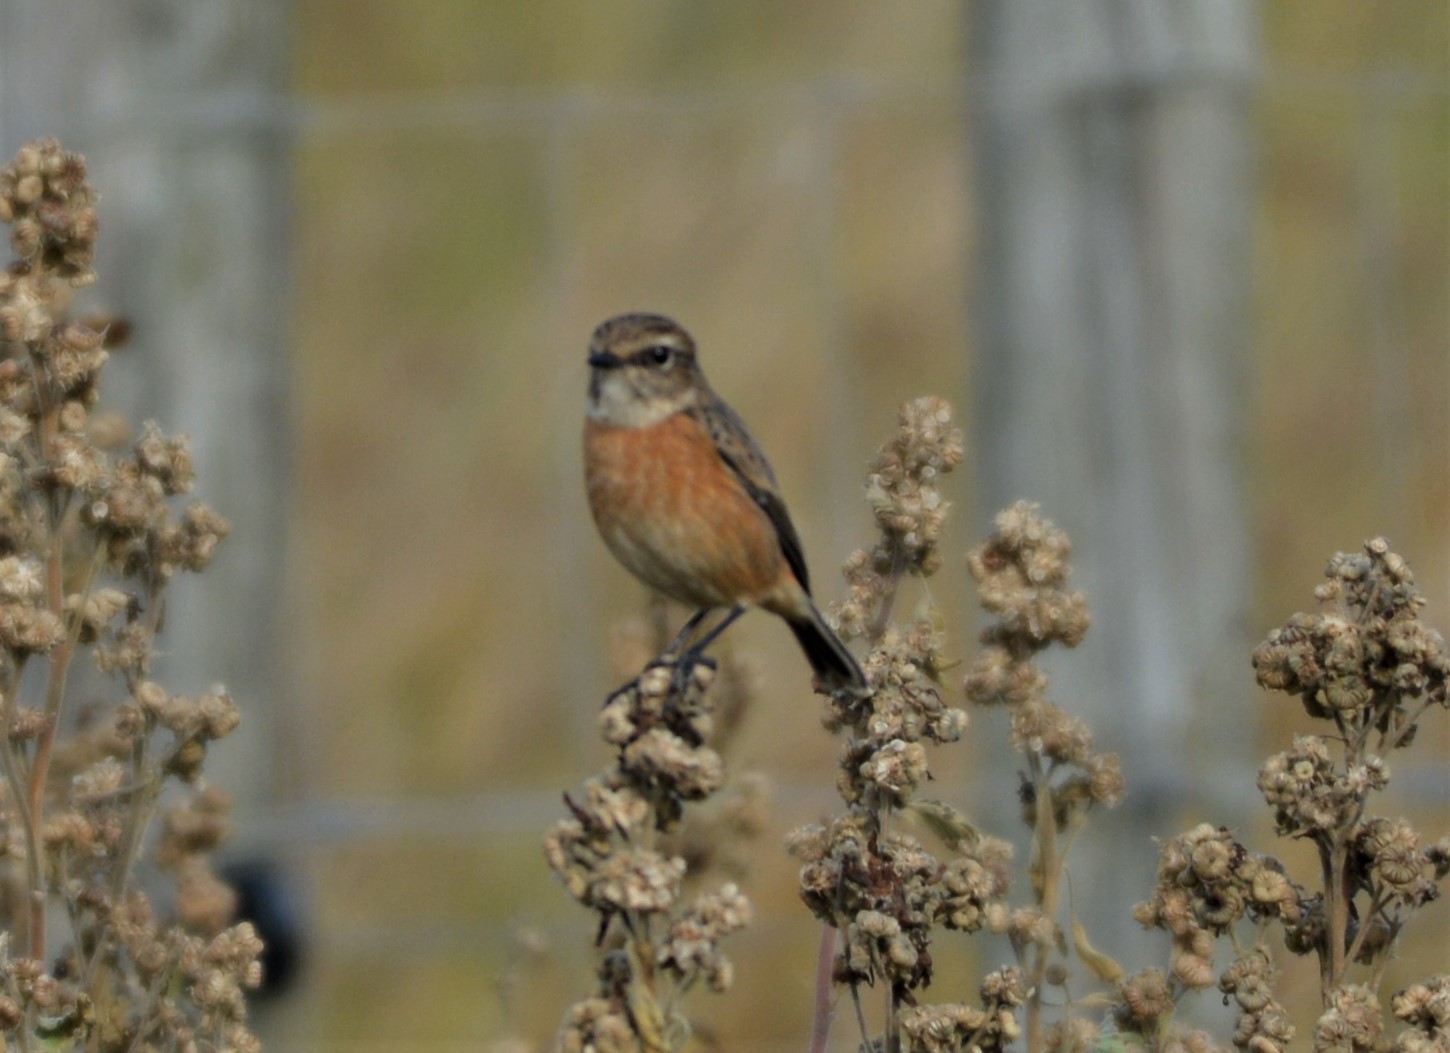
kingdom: Animalia
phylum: Chordata
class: Aves
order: Passeriformes
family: Muscicapidae
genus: Saxicola
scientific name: Saxicola rubicola
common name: European stonechat
